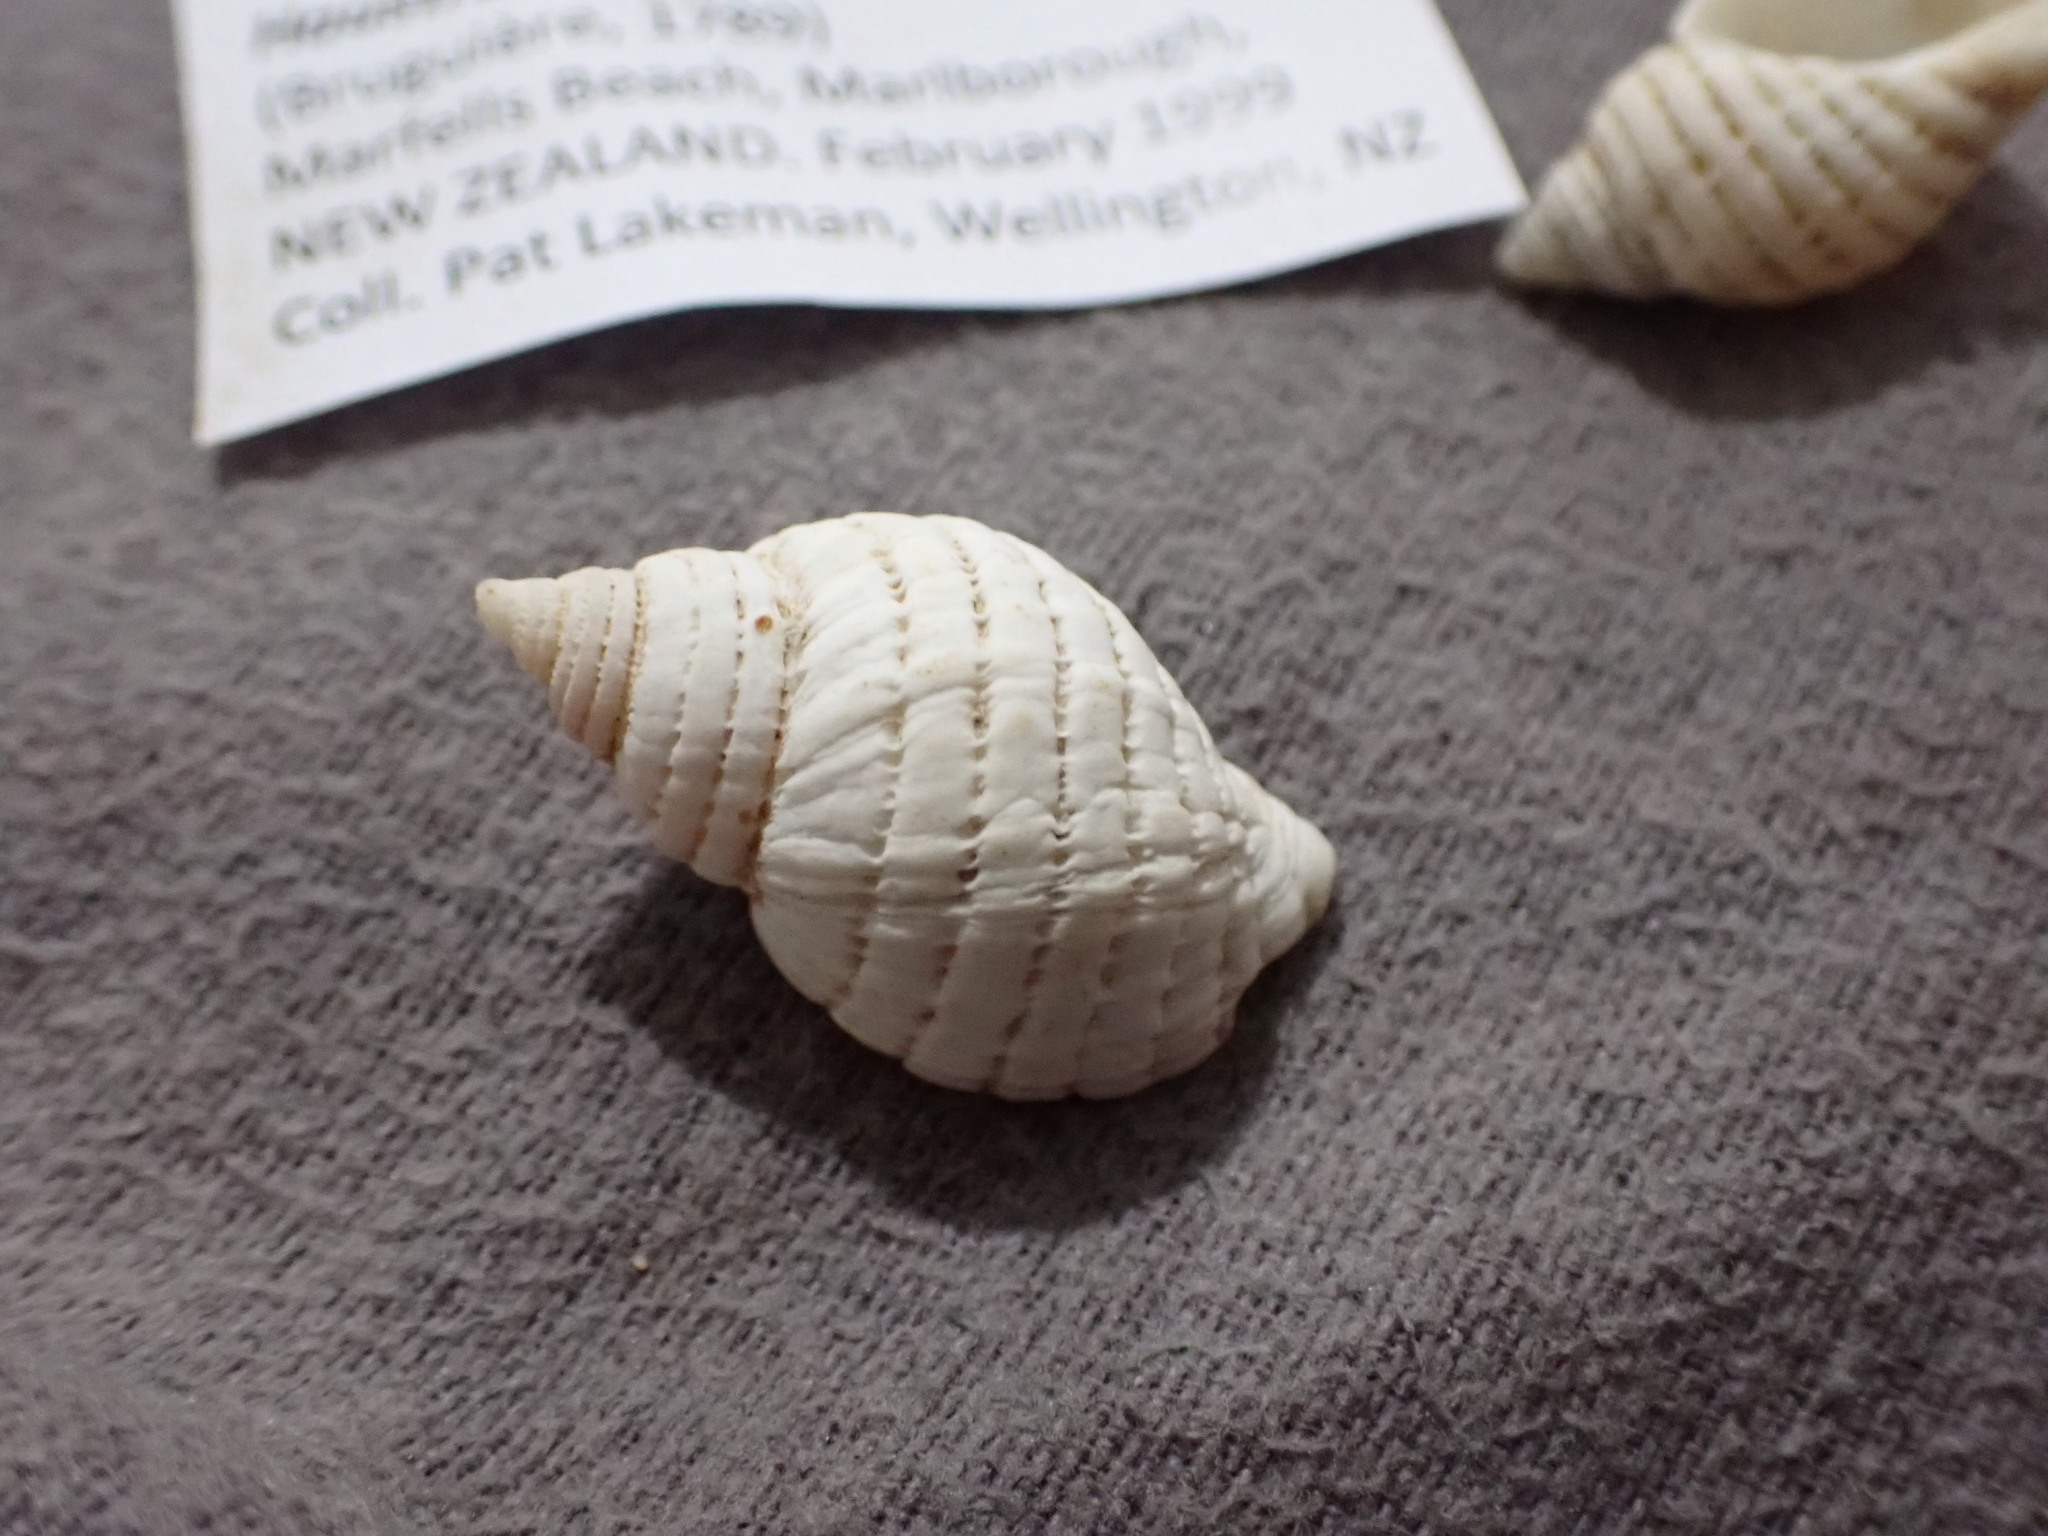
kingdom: Animalia
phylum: Mollusca
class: Gastropoda
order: Neogastropoda
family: Muricidae
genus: Haustrum
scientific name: Haustrum lacunosum
